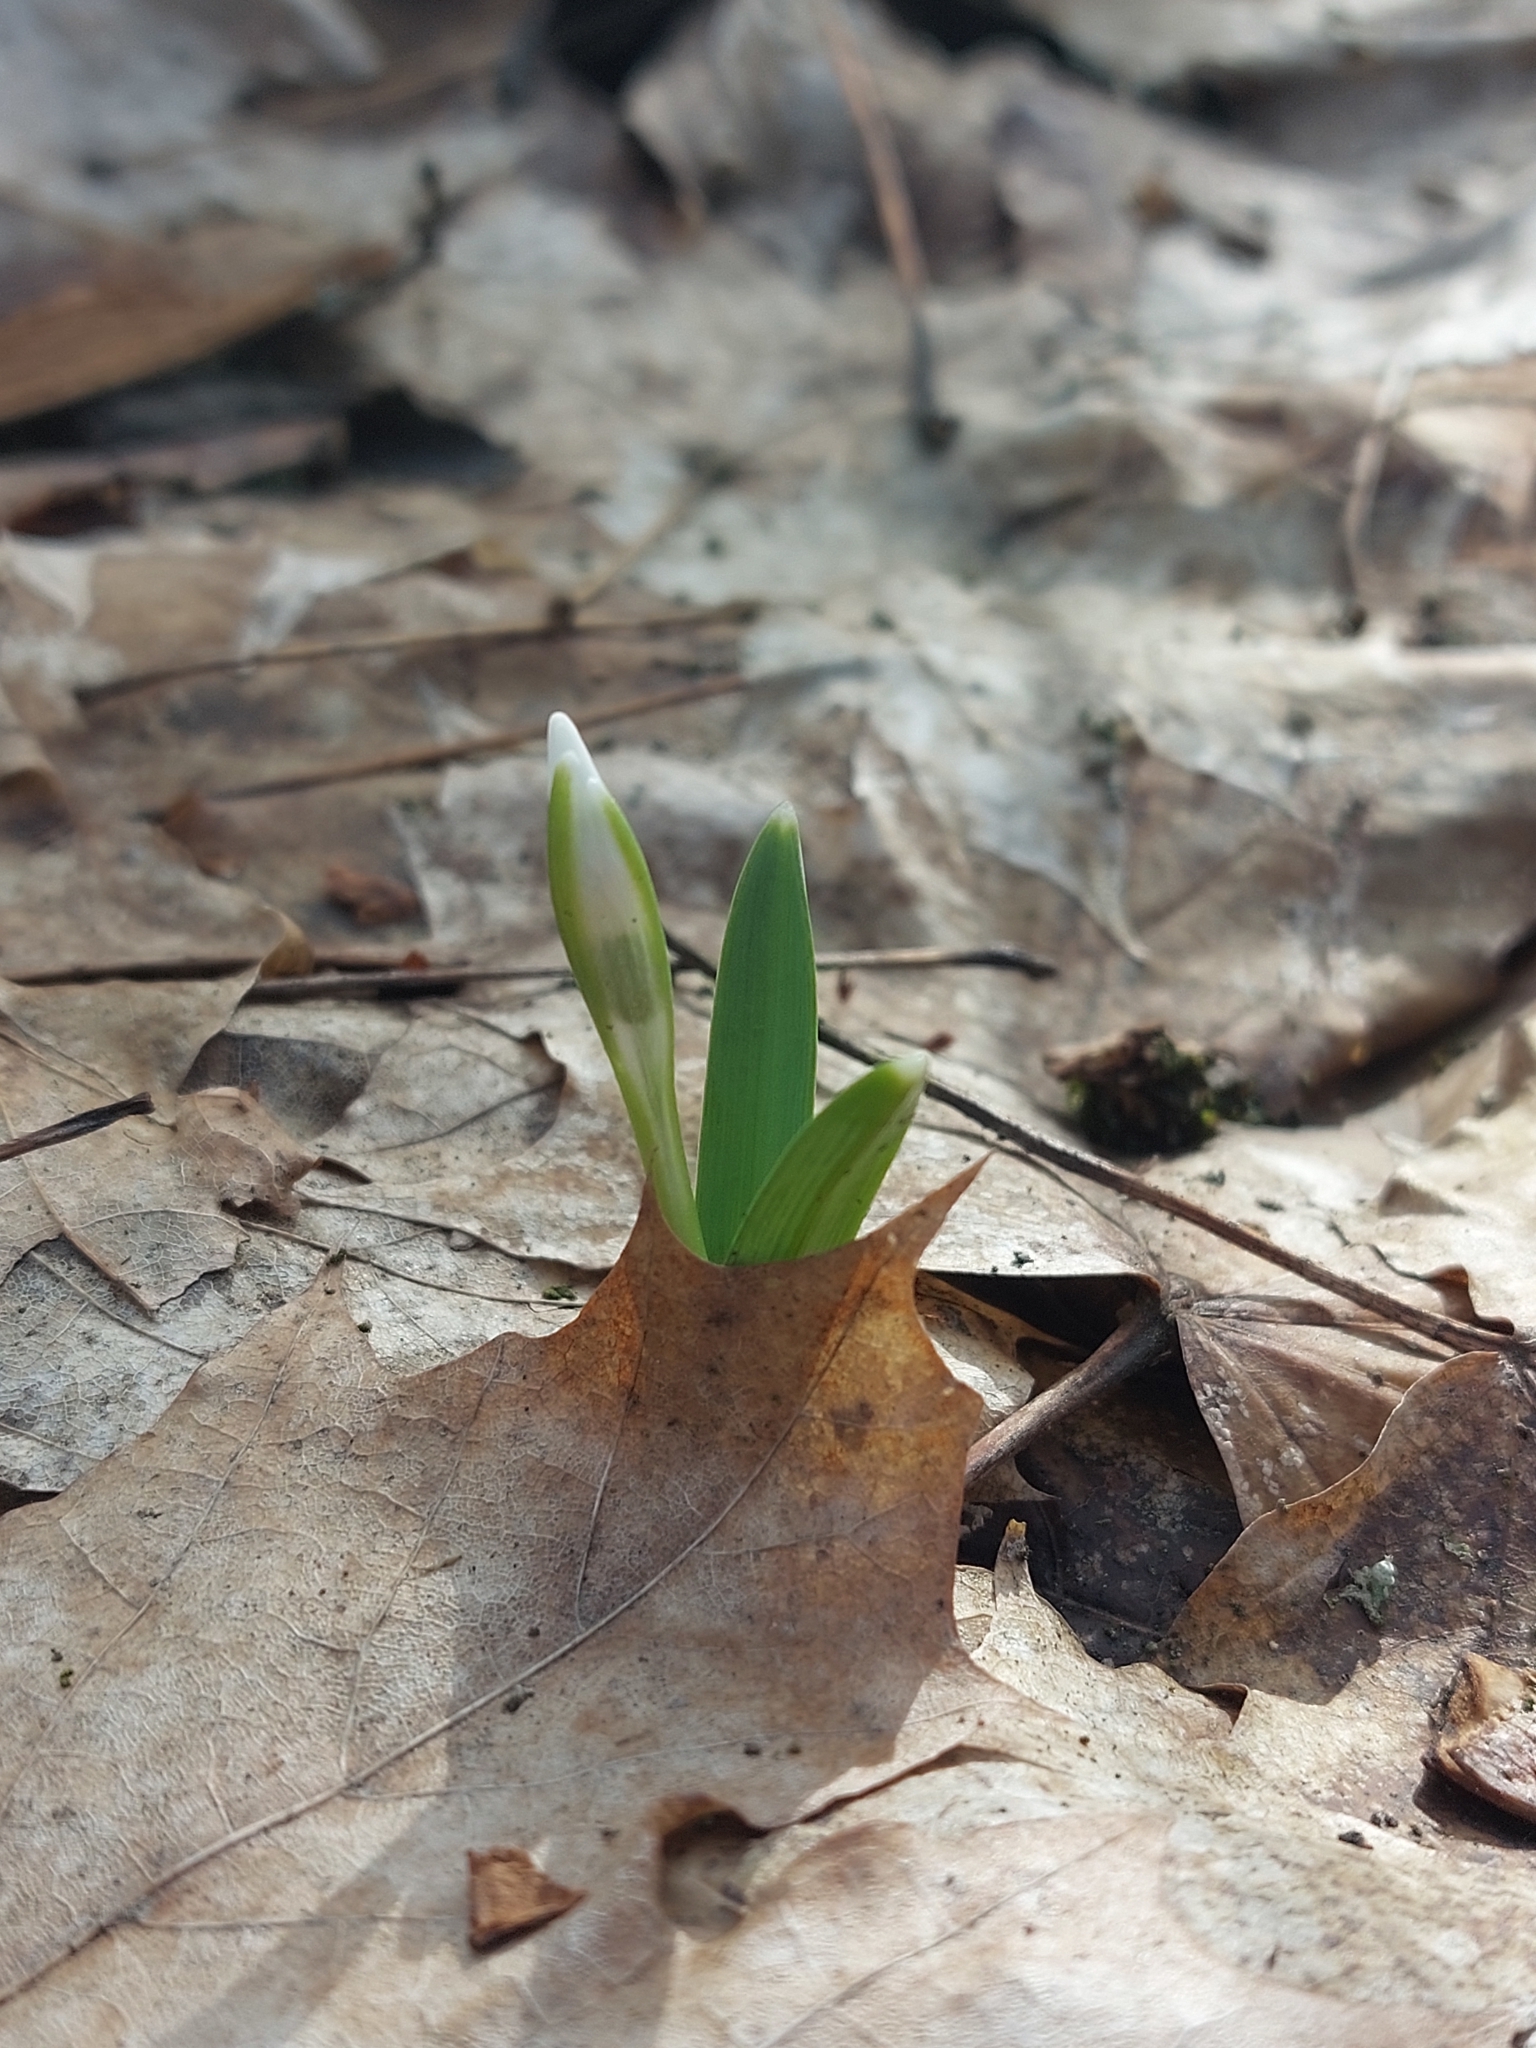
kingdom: Plantae
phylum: Tracheophyta
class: Liliopsida
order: Asparagales
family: Amaryllidaceae
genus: Galanthus
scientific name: Galanthus nivalis
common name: Snowdrop
